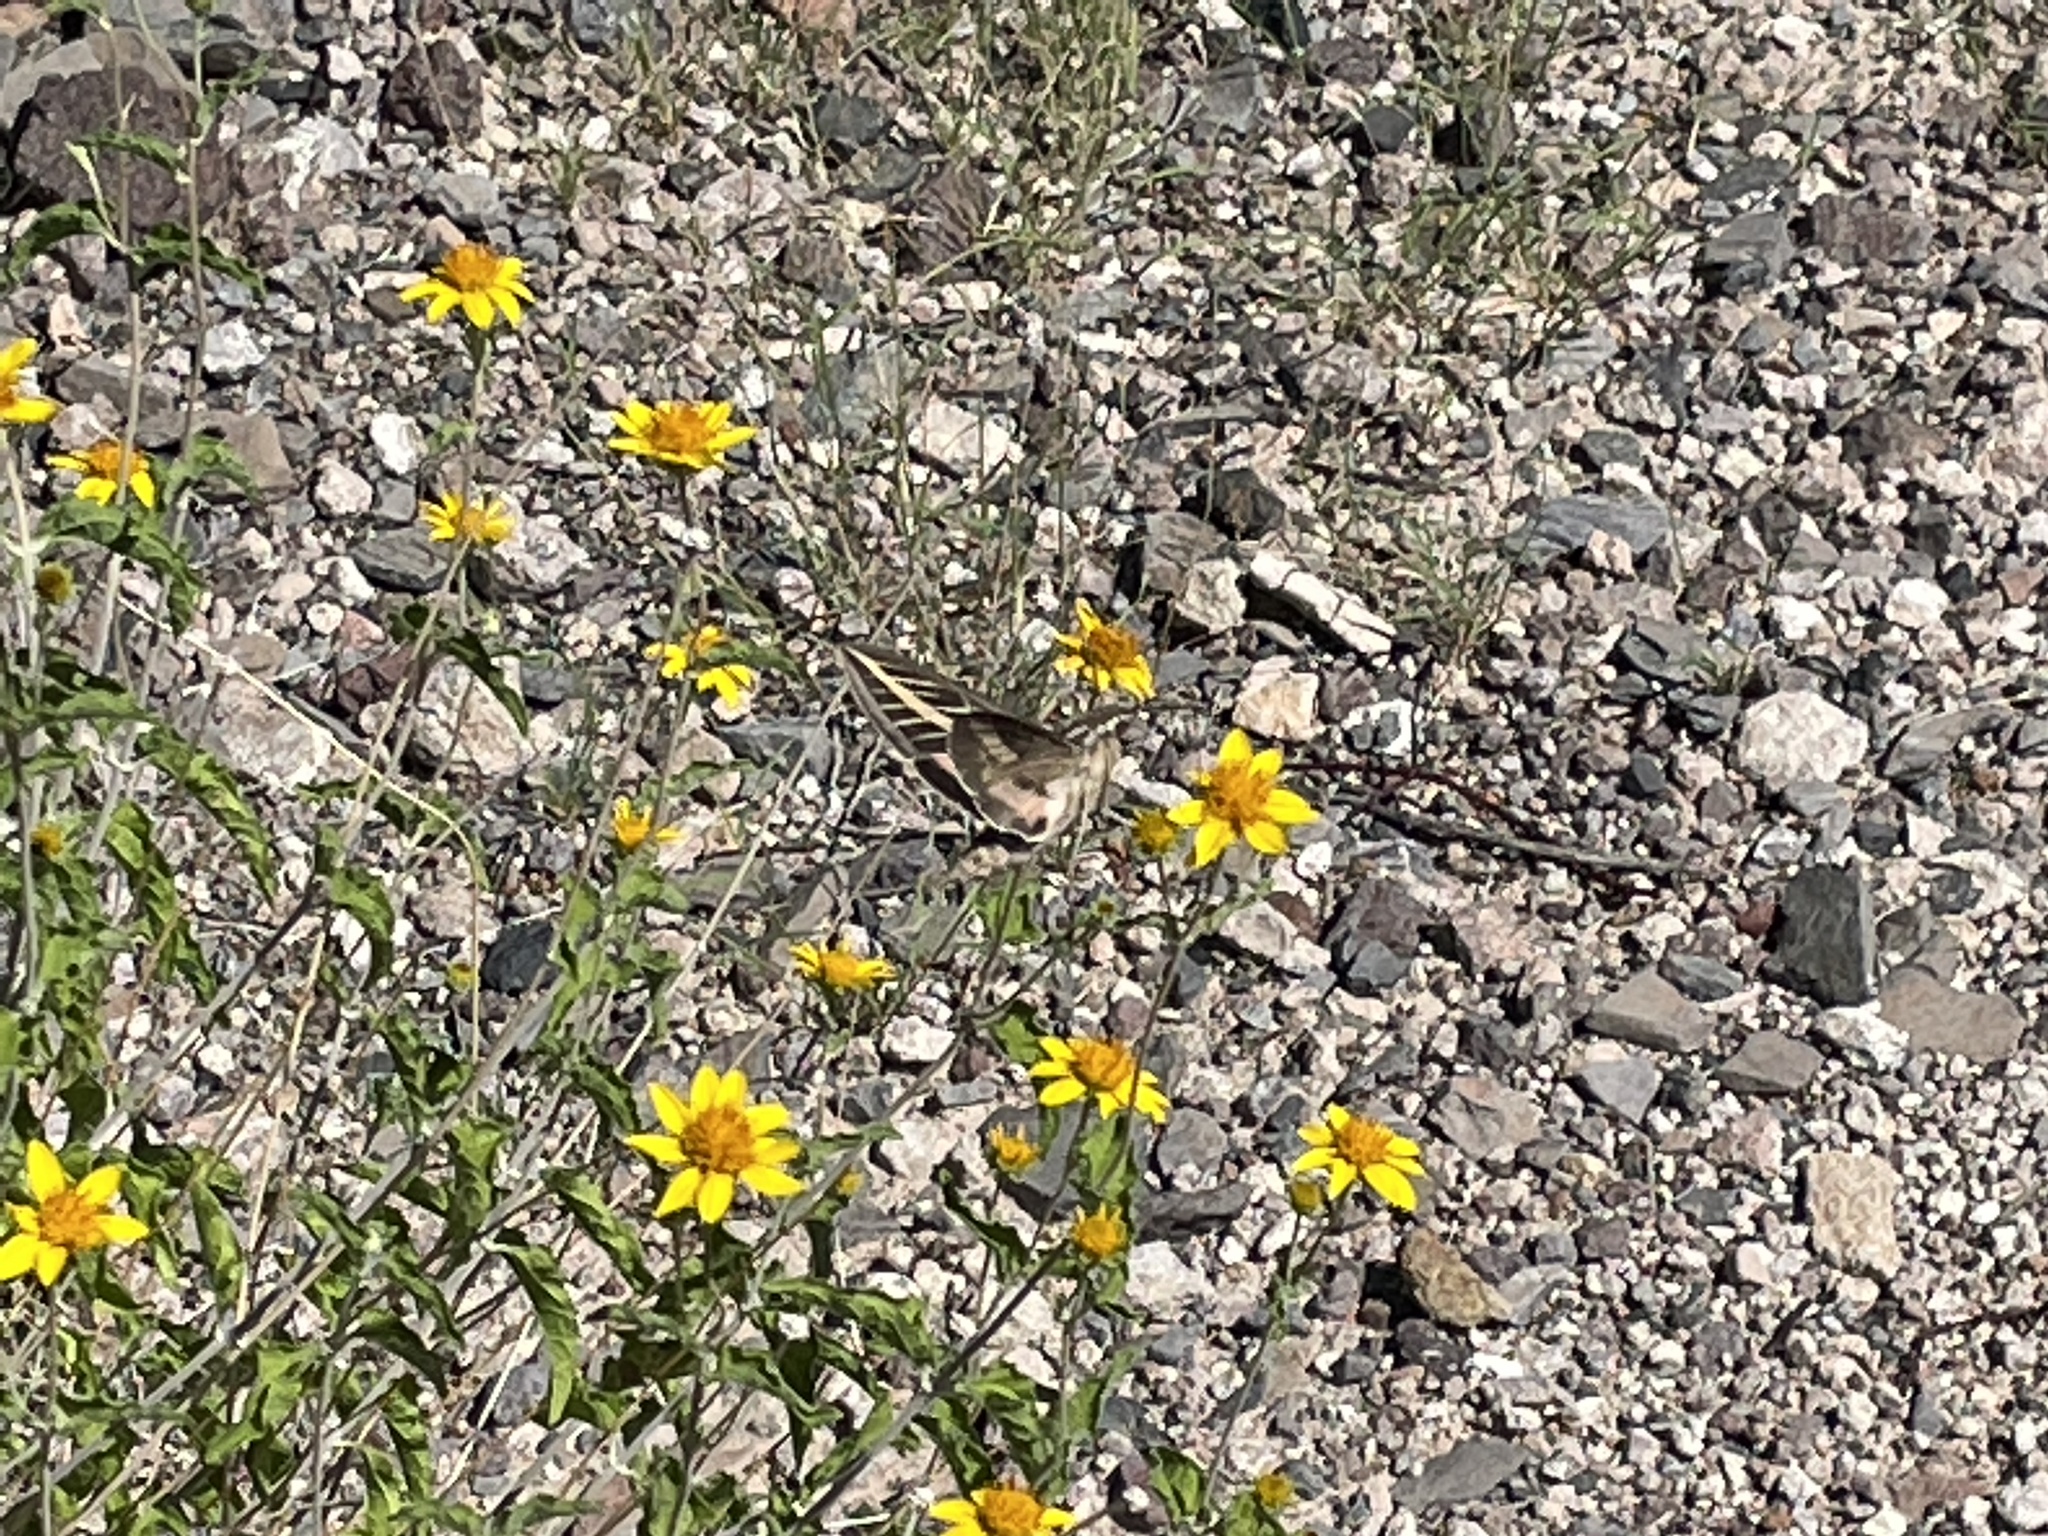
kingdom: Animalia
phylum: Arthropoda
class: Insecta
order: Lepidoptera
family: Sphingidae
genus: Hyles
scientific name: Hyles lineata
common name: White-lined sphinx
